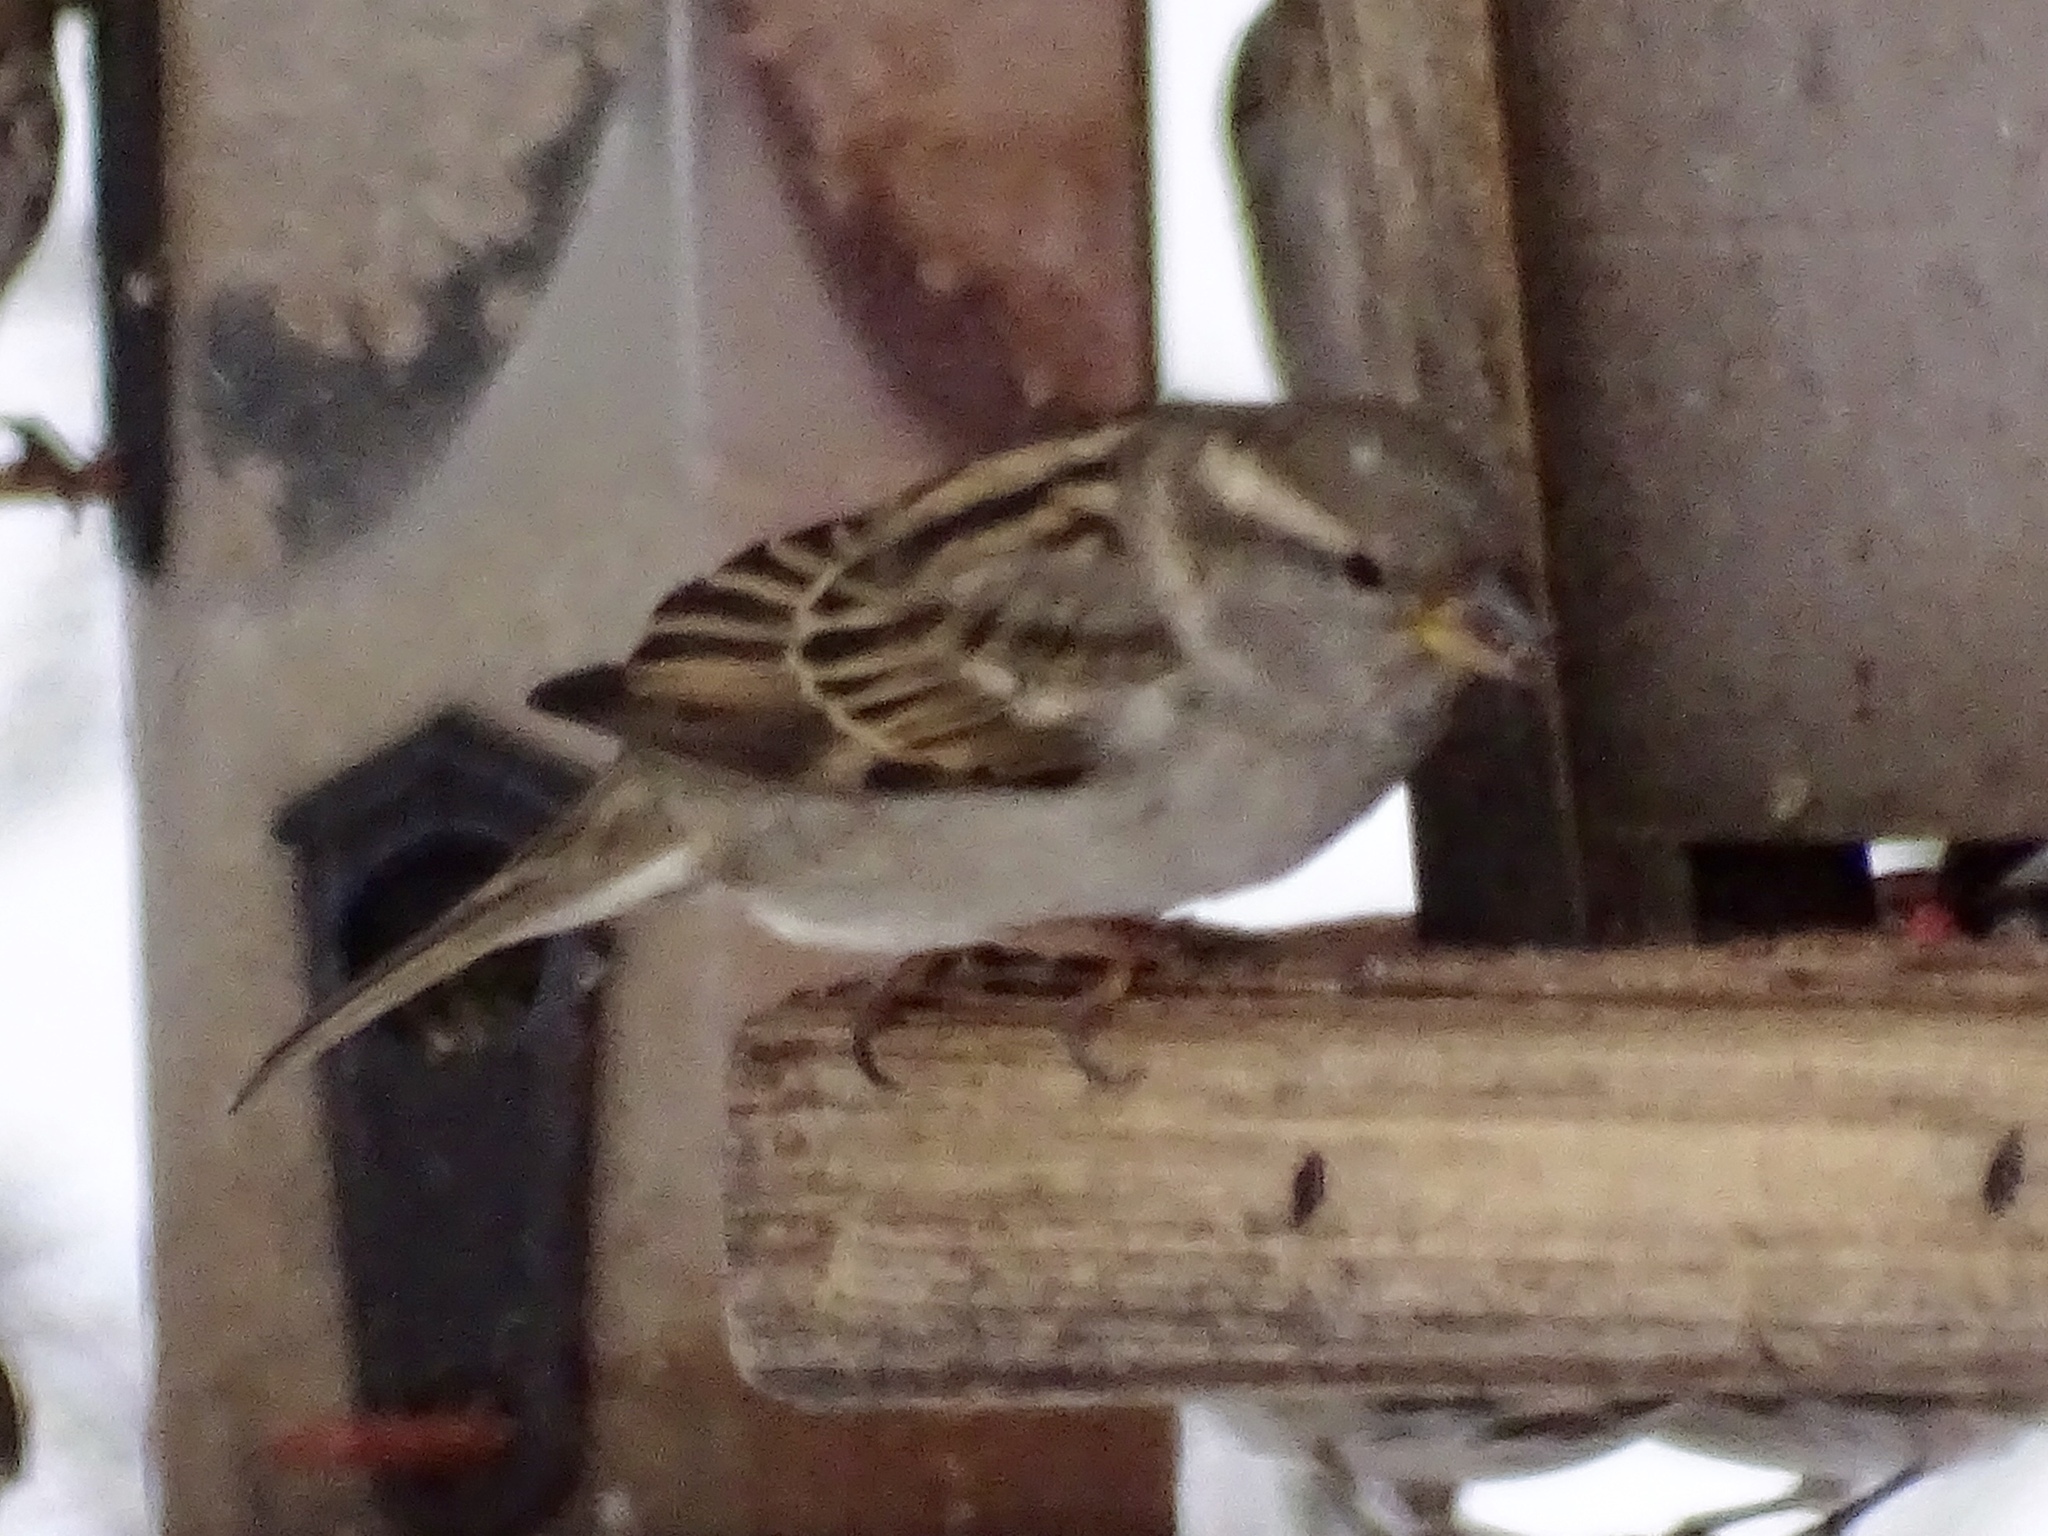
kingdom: Animalia
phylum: Chordata
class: Aves
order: Passeriformes
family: Passeridae
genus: Passer
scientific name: Passer domesticus
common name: House sparrow
